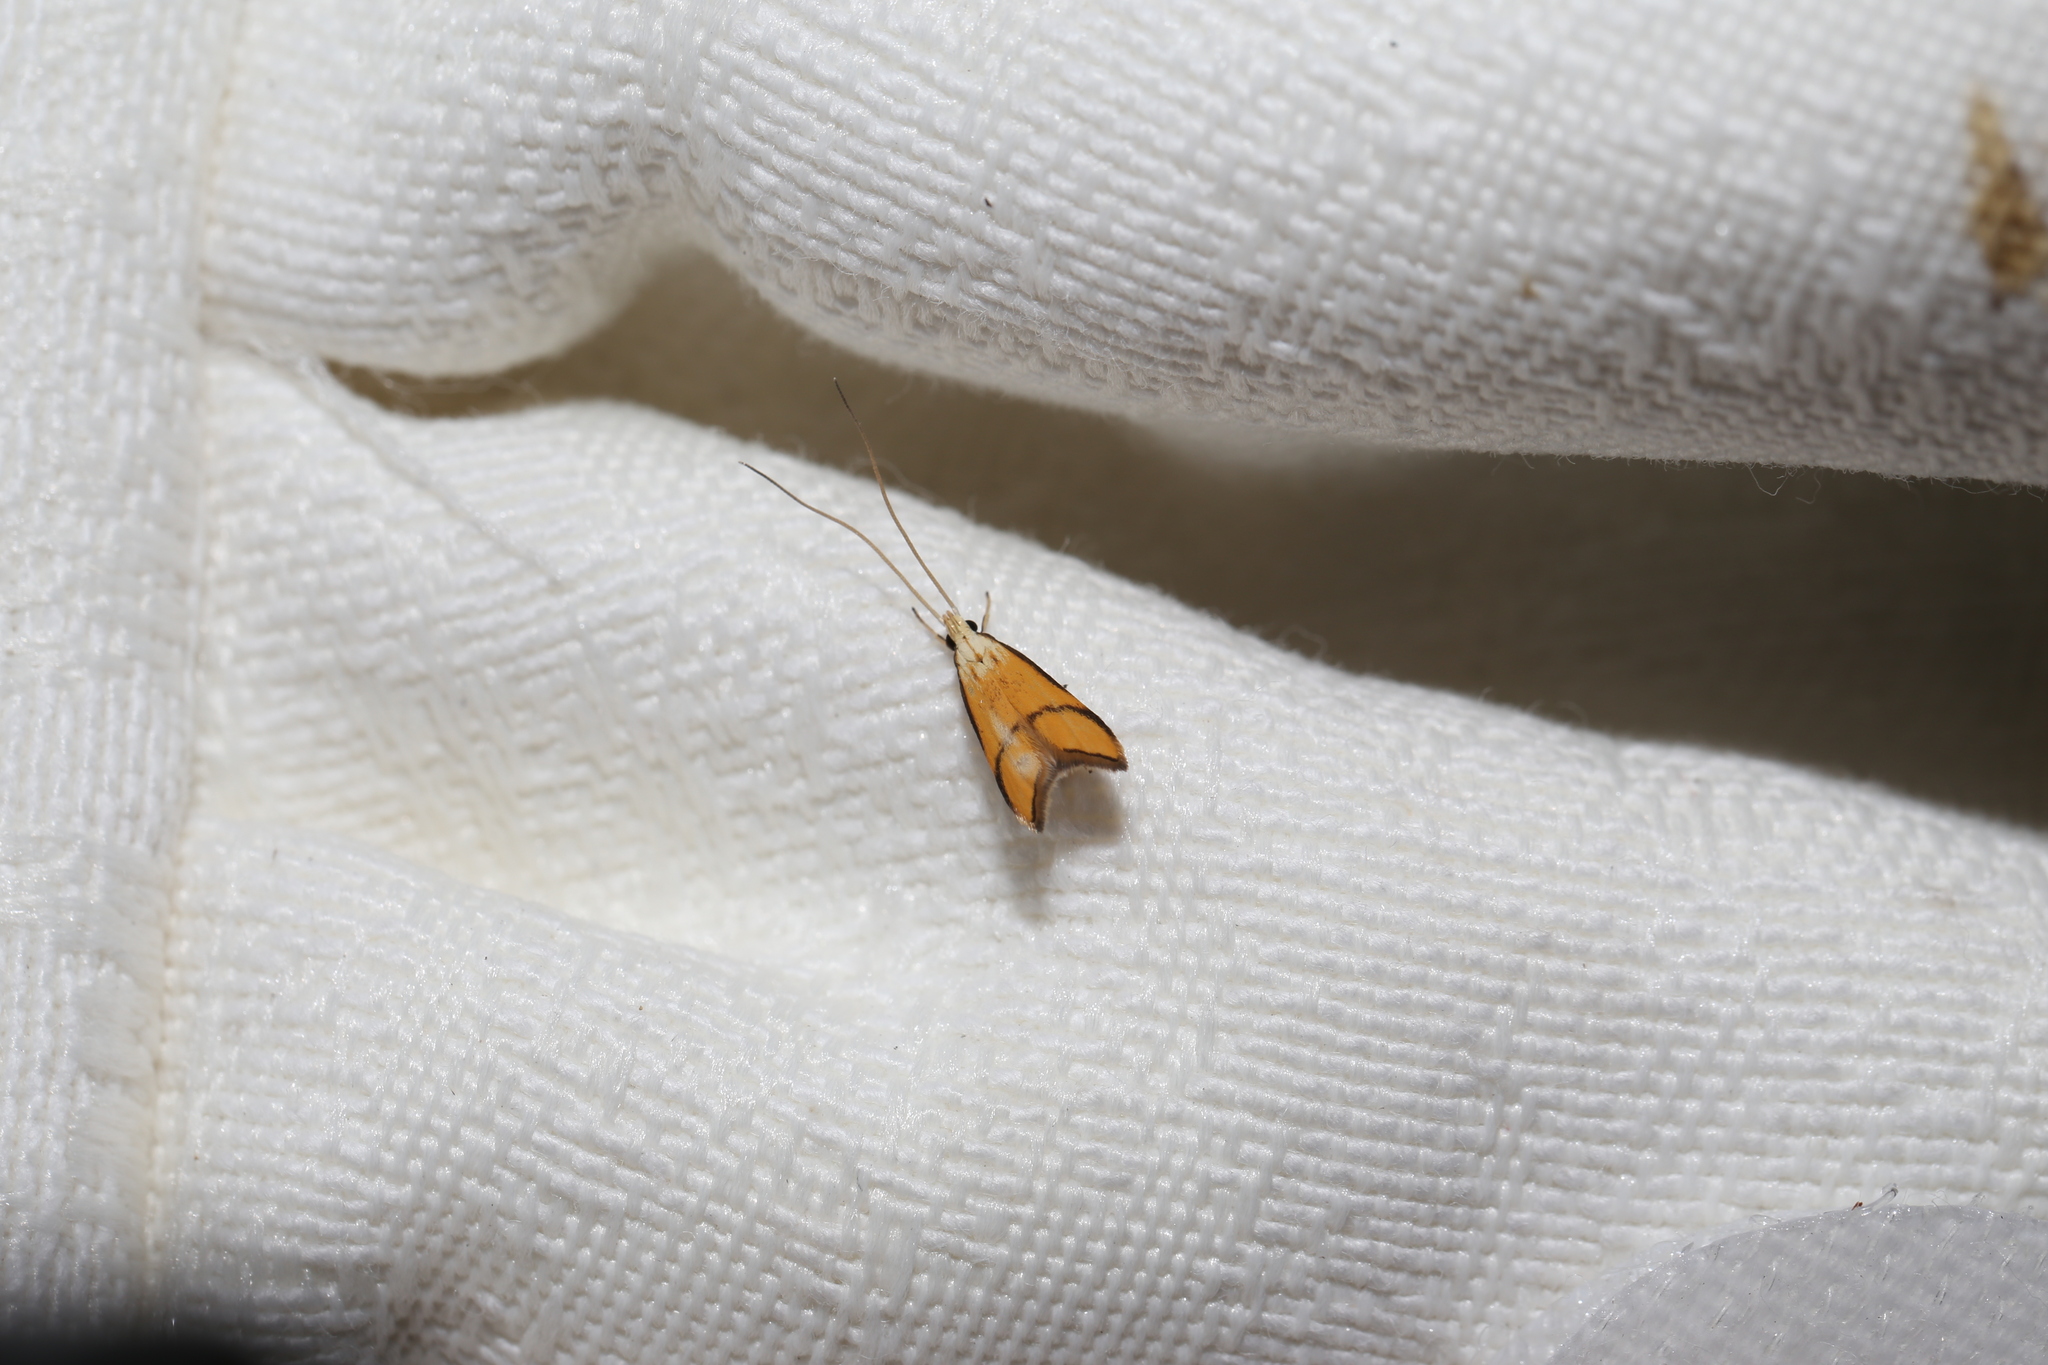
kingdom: Animalia
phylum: Arthropoda
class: Insecta
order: Lepidoptera
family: Lecithoceridae
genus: Crocanthes
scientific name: Crocanthes perigrapta
